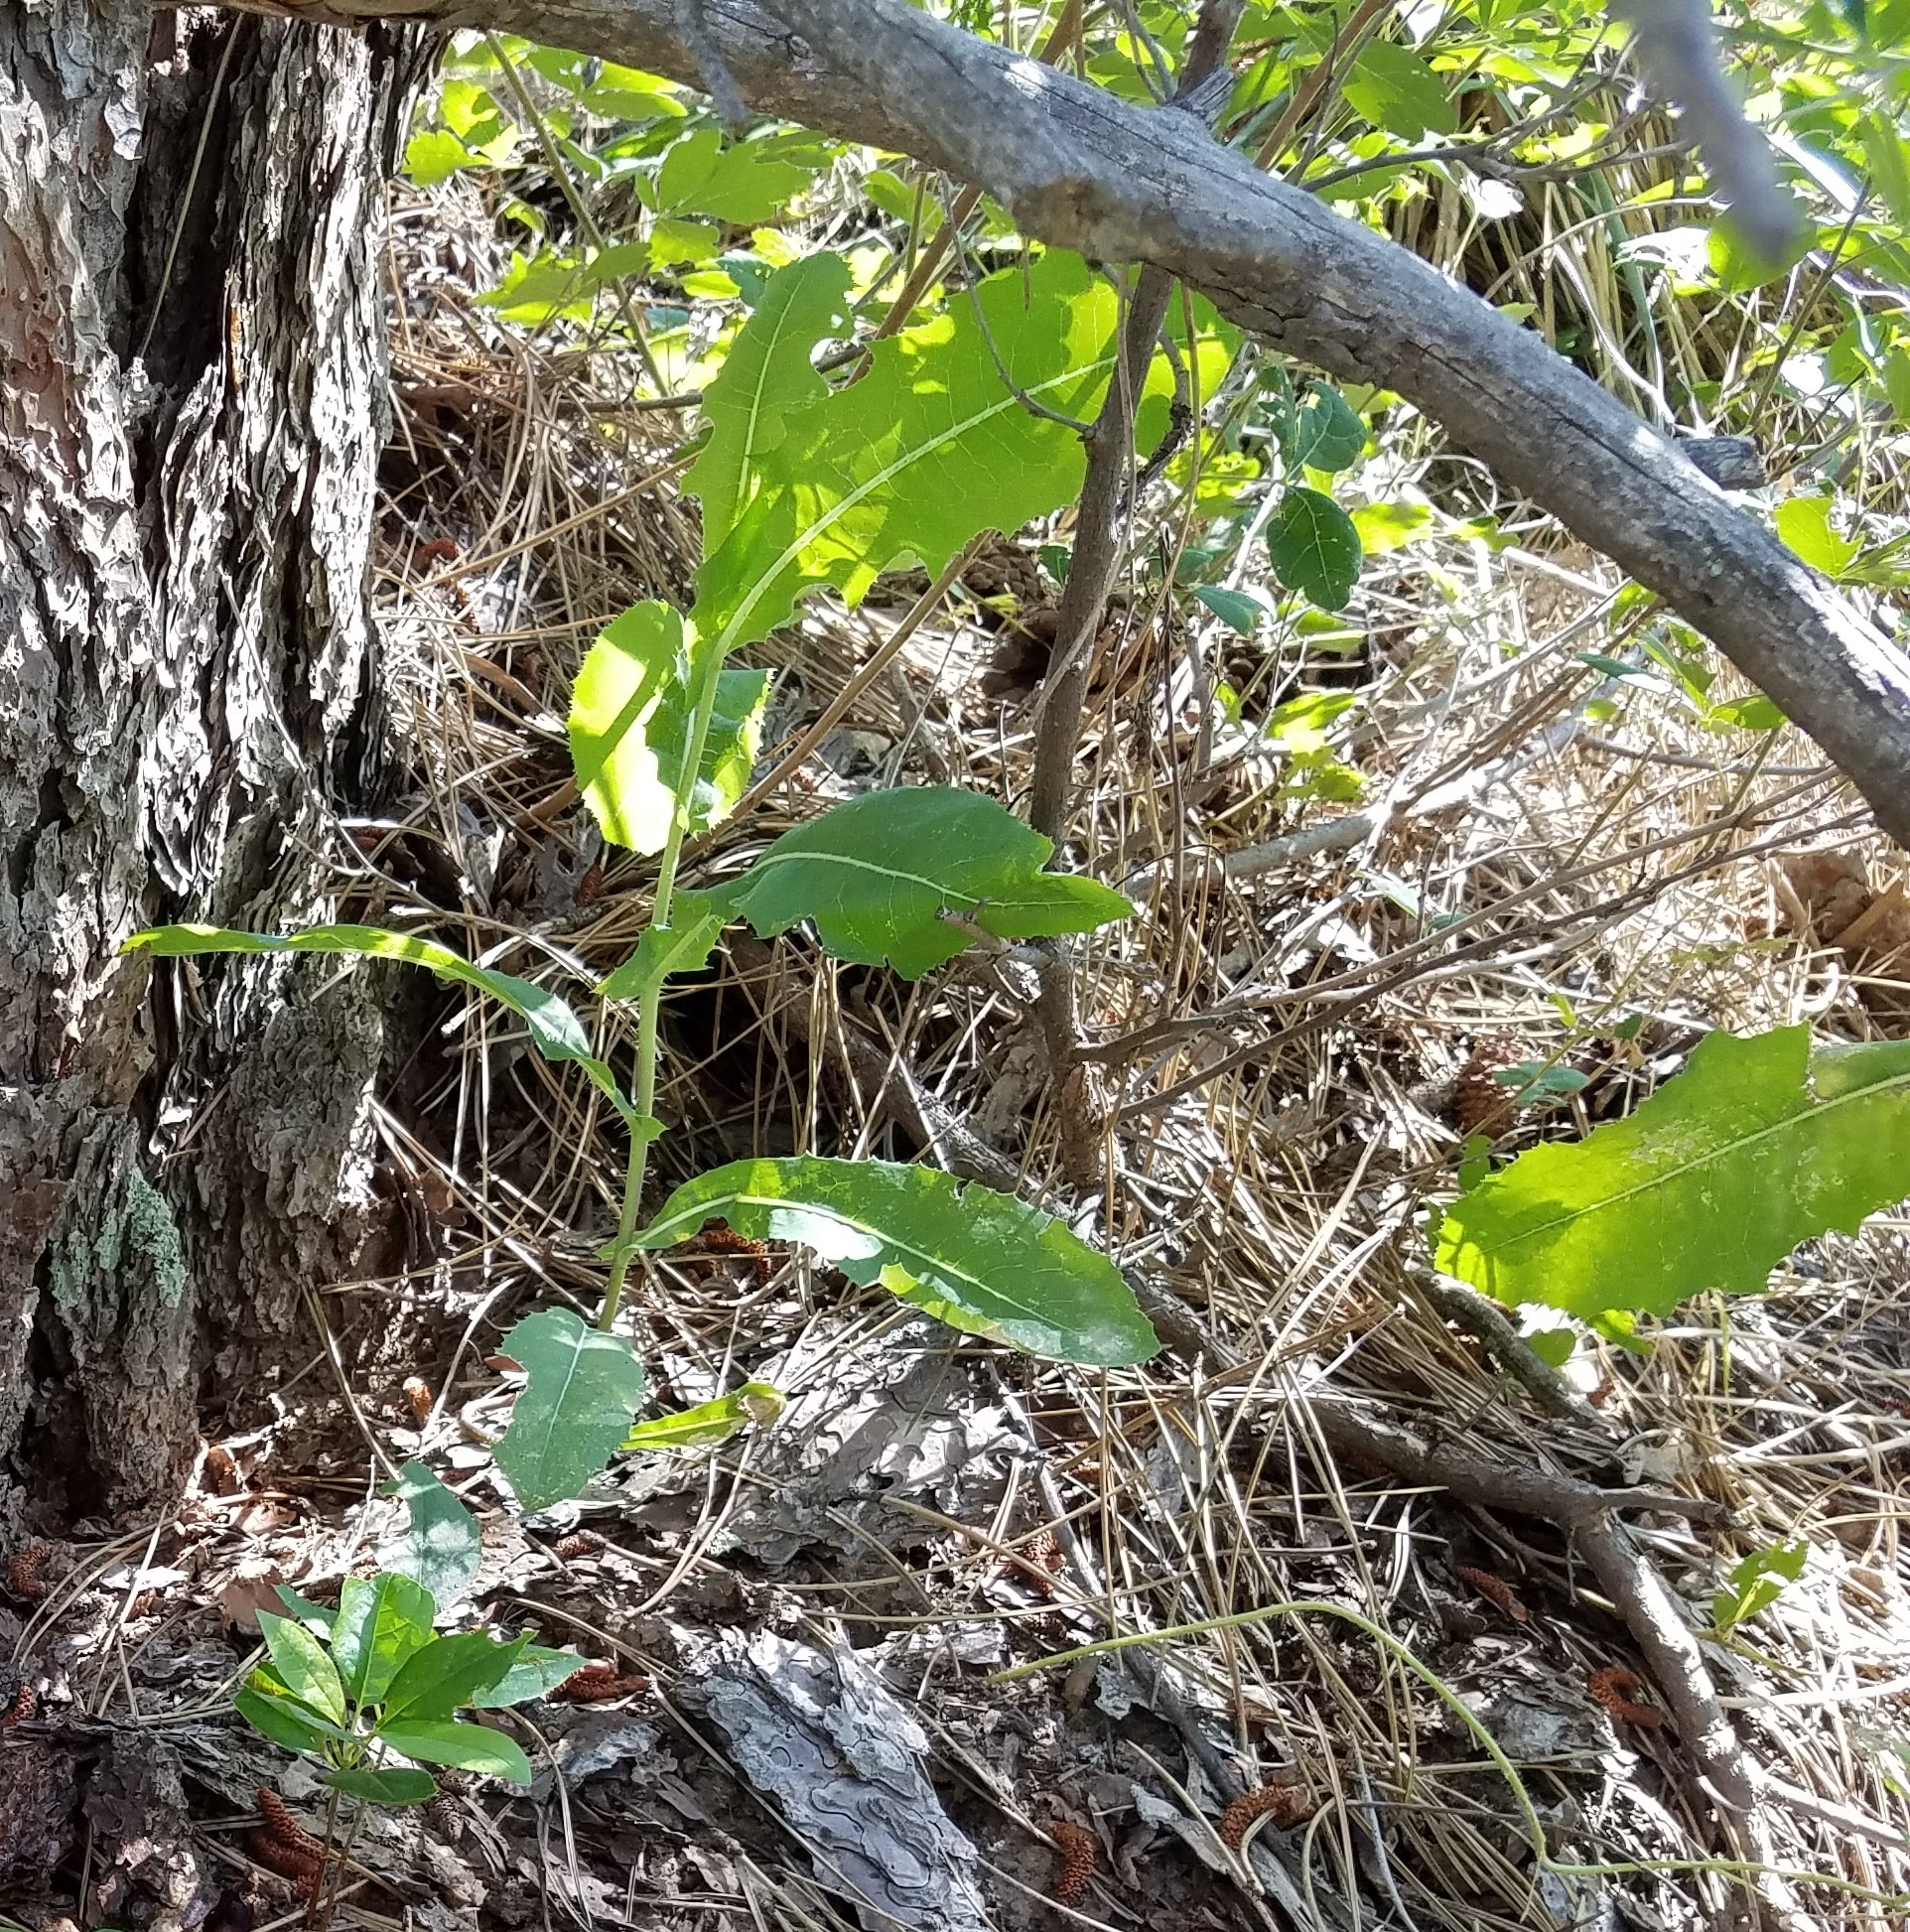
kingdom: Plantae
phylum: Tracheophyta
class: Magnoliopsida
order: Asterales
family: Asteraceae
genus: Lactuca
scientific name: Lactuca serriola
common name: Prickly lettuce
